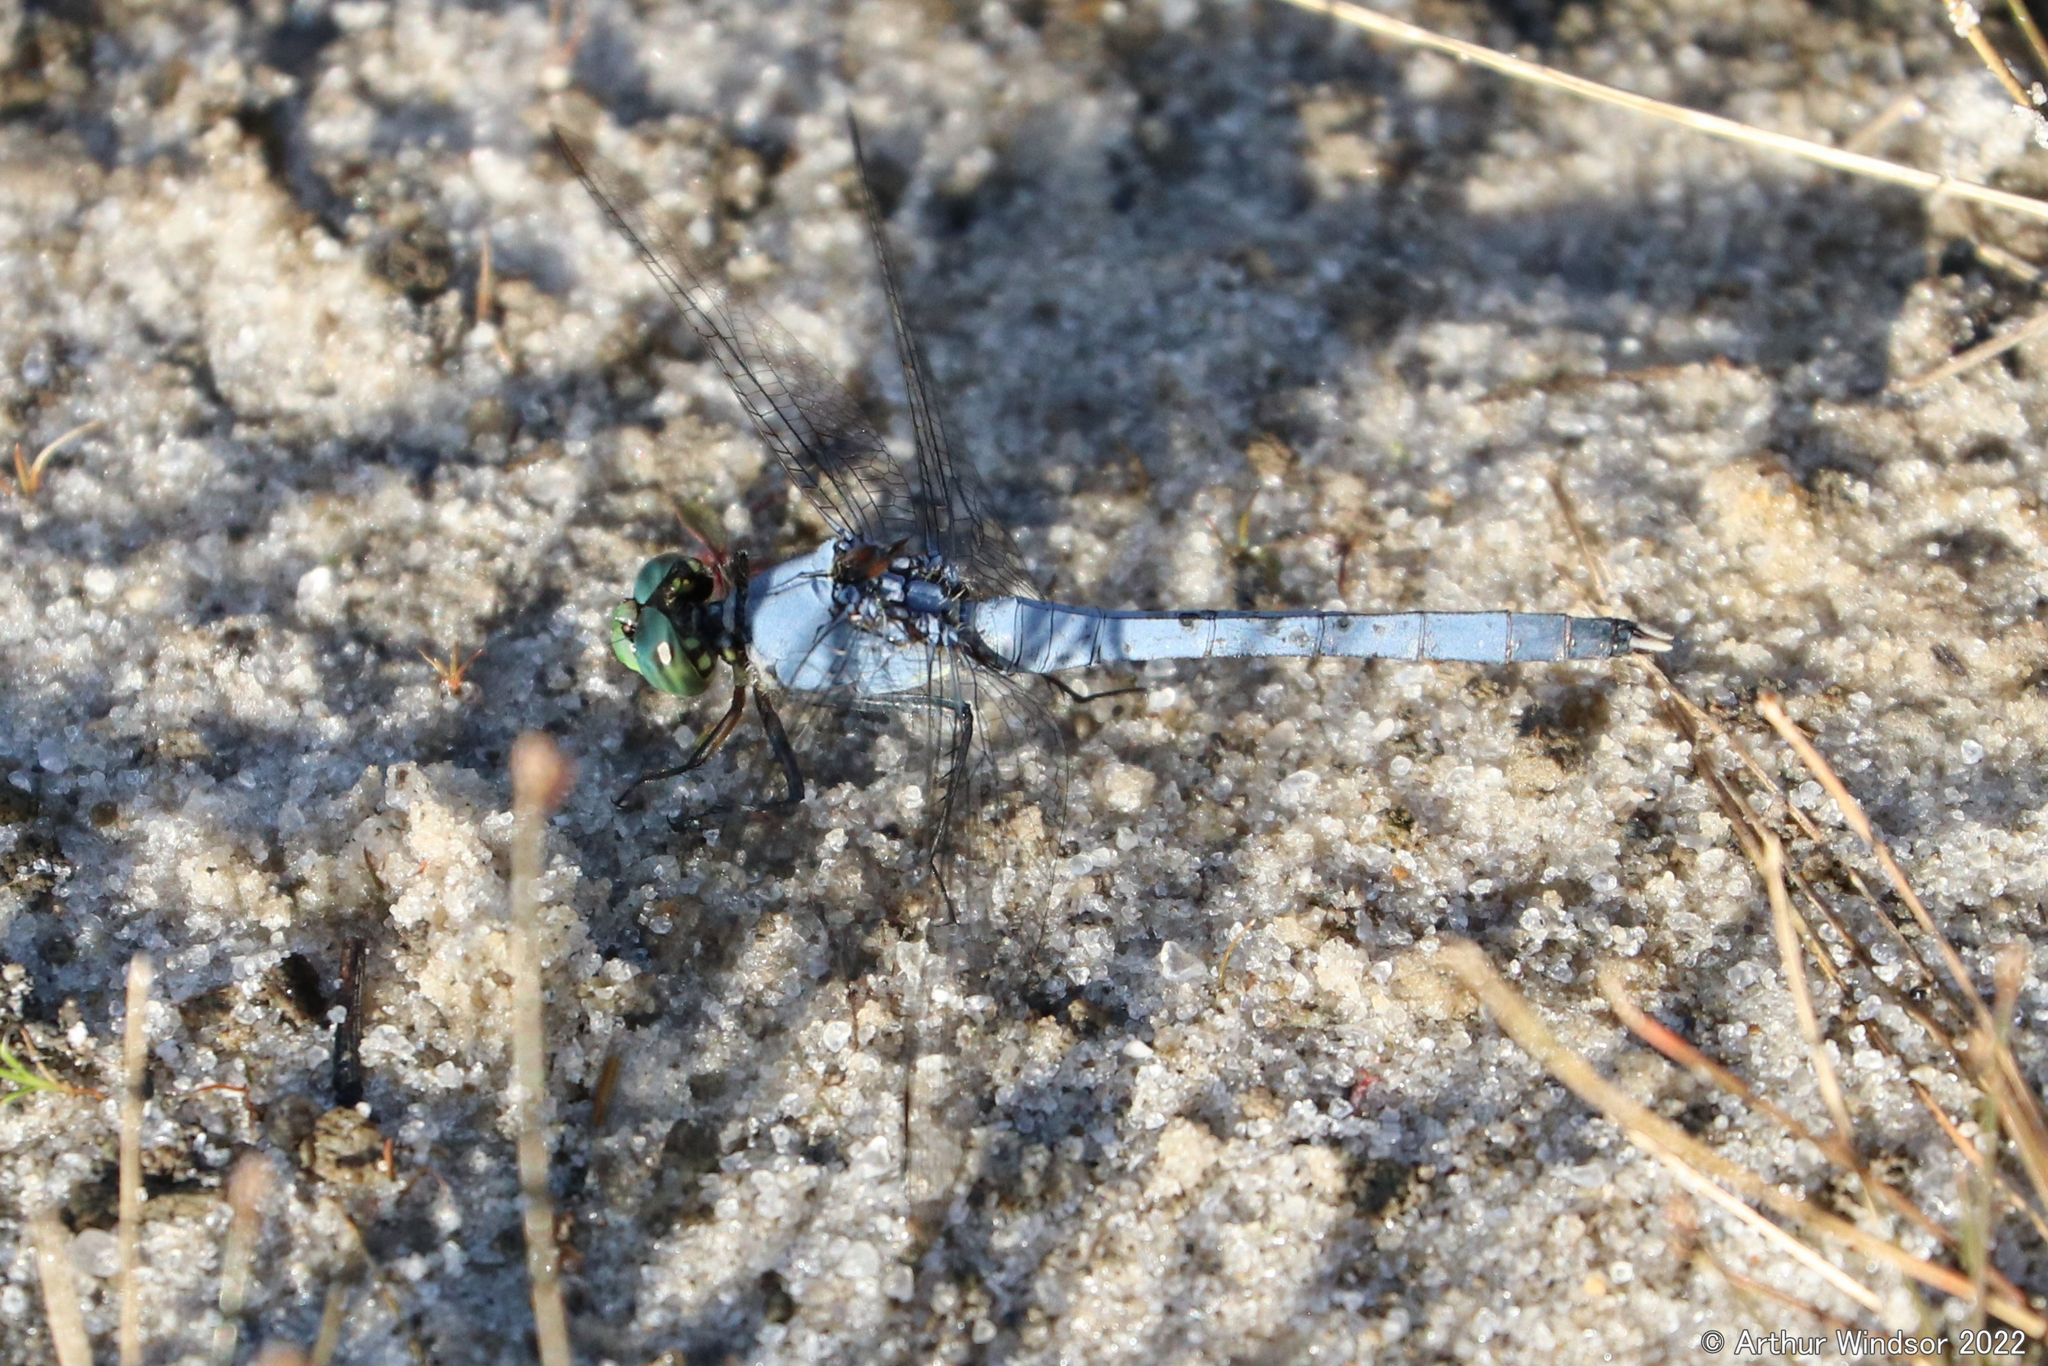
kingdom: Animalia
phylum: Arthropoda
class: Insecta
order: Odonata
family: Libellulidae
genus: Erythemis
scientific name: Erythemis simplicicollis
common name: Eastern pondhawk
